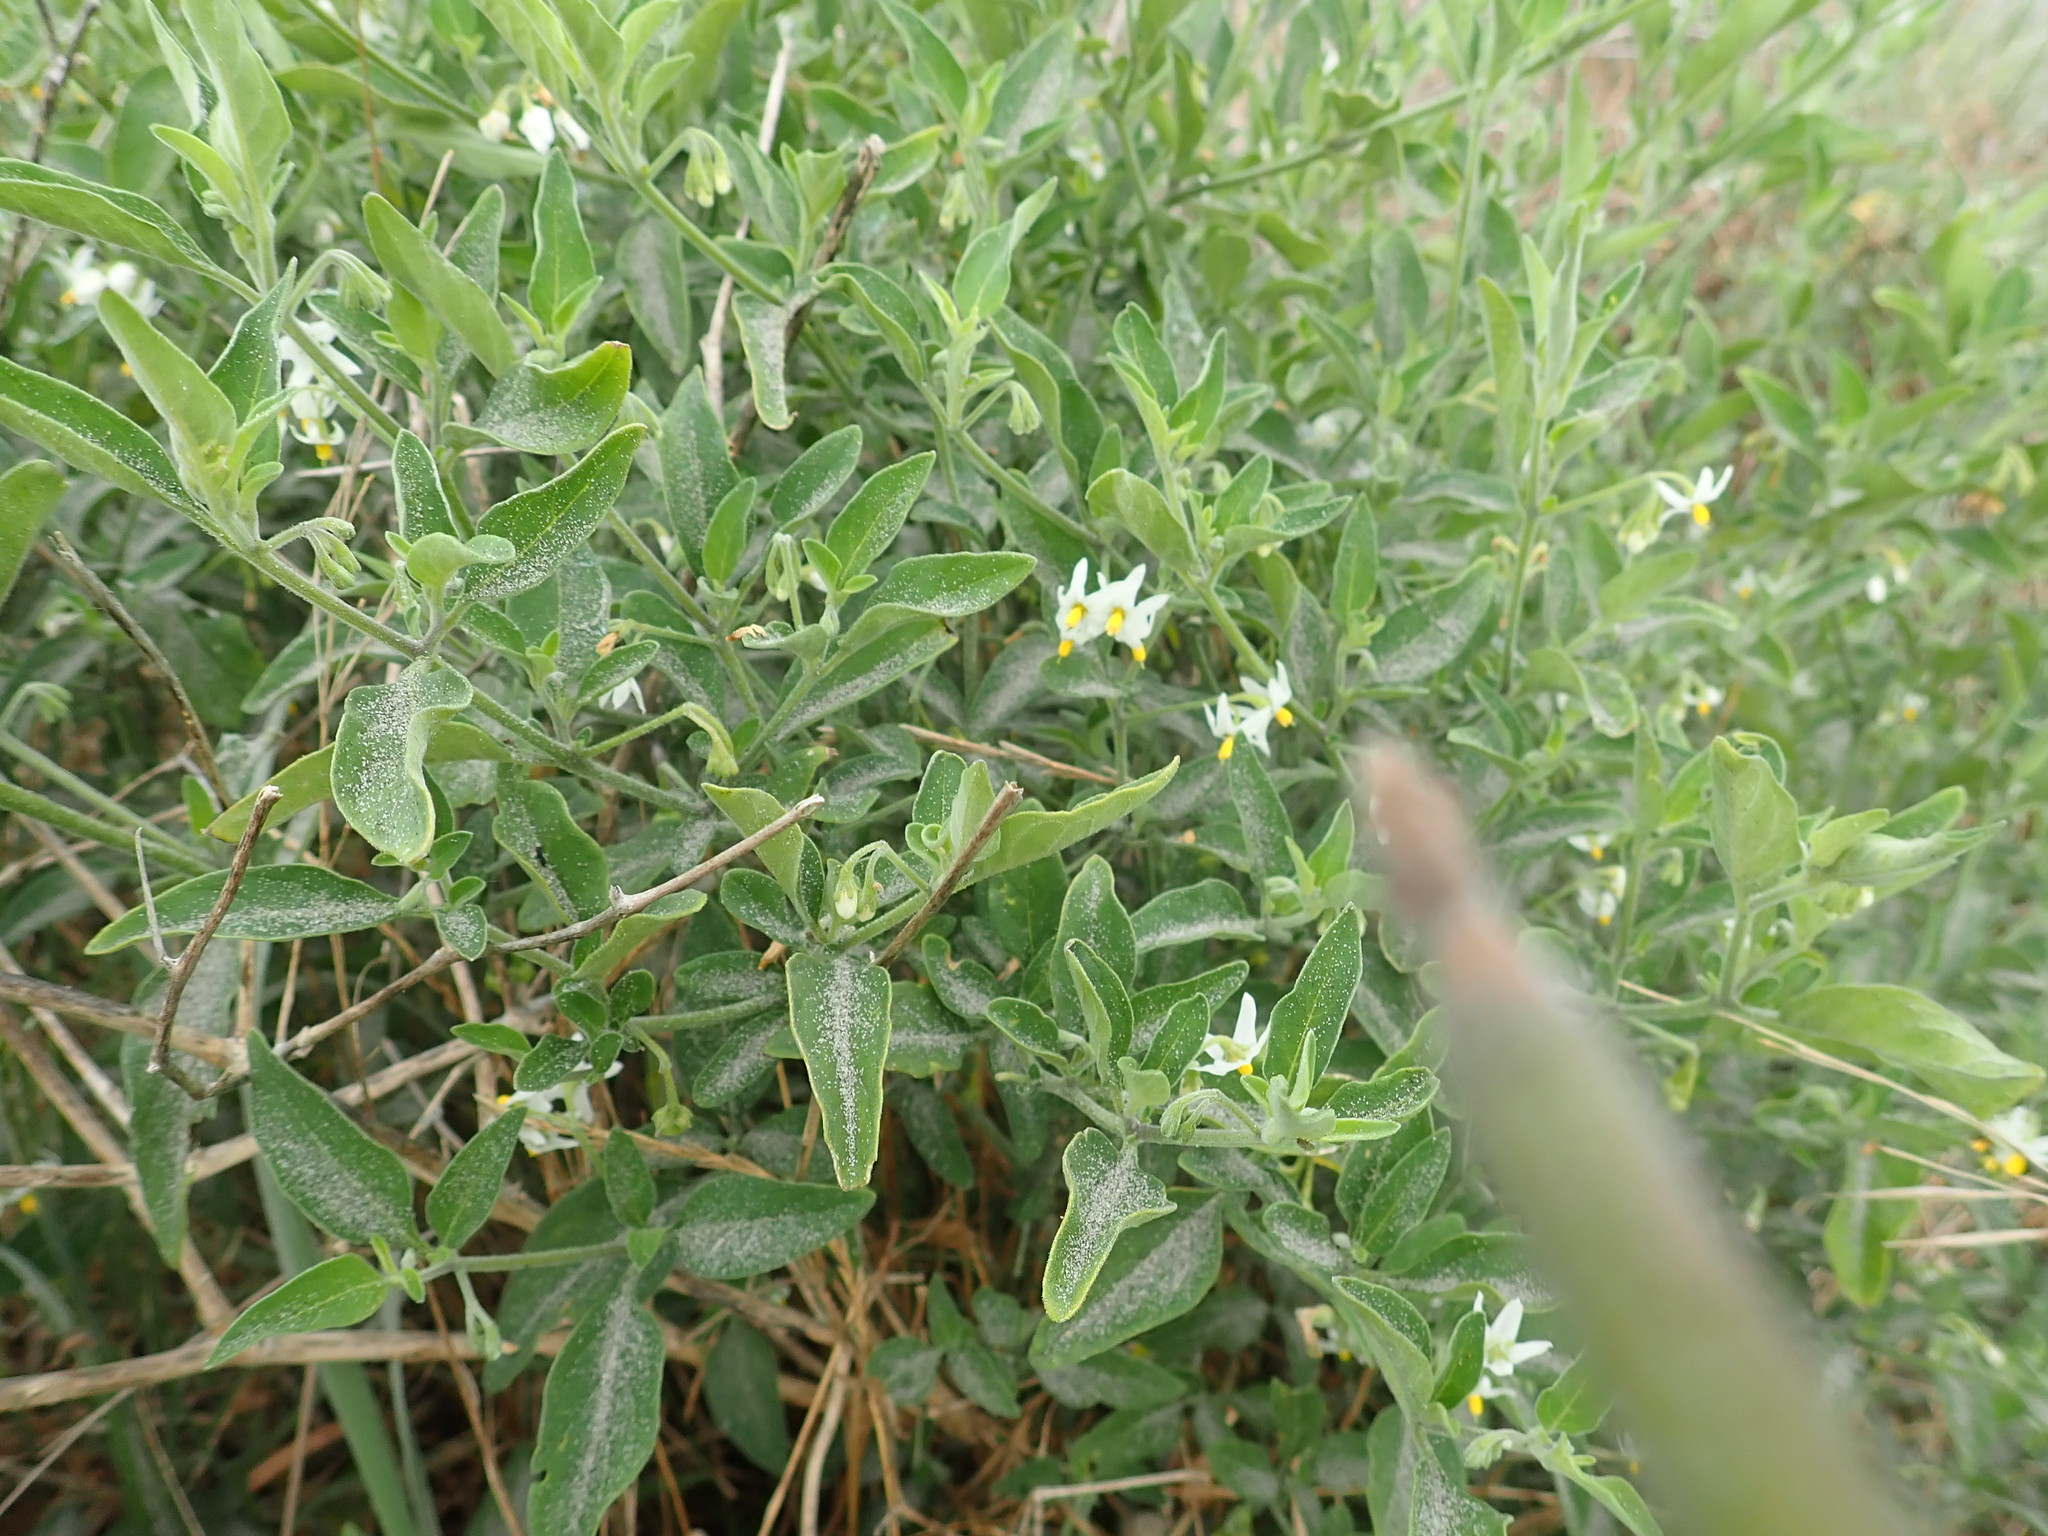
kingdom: Plantae
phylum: Tracheophyta
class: Magnoliopsida
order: Solanales
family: Solanaceae
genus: Solanum
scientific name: Solanum chenopodioides
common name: Tall nightshade
